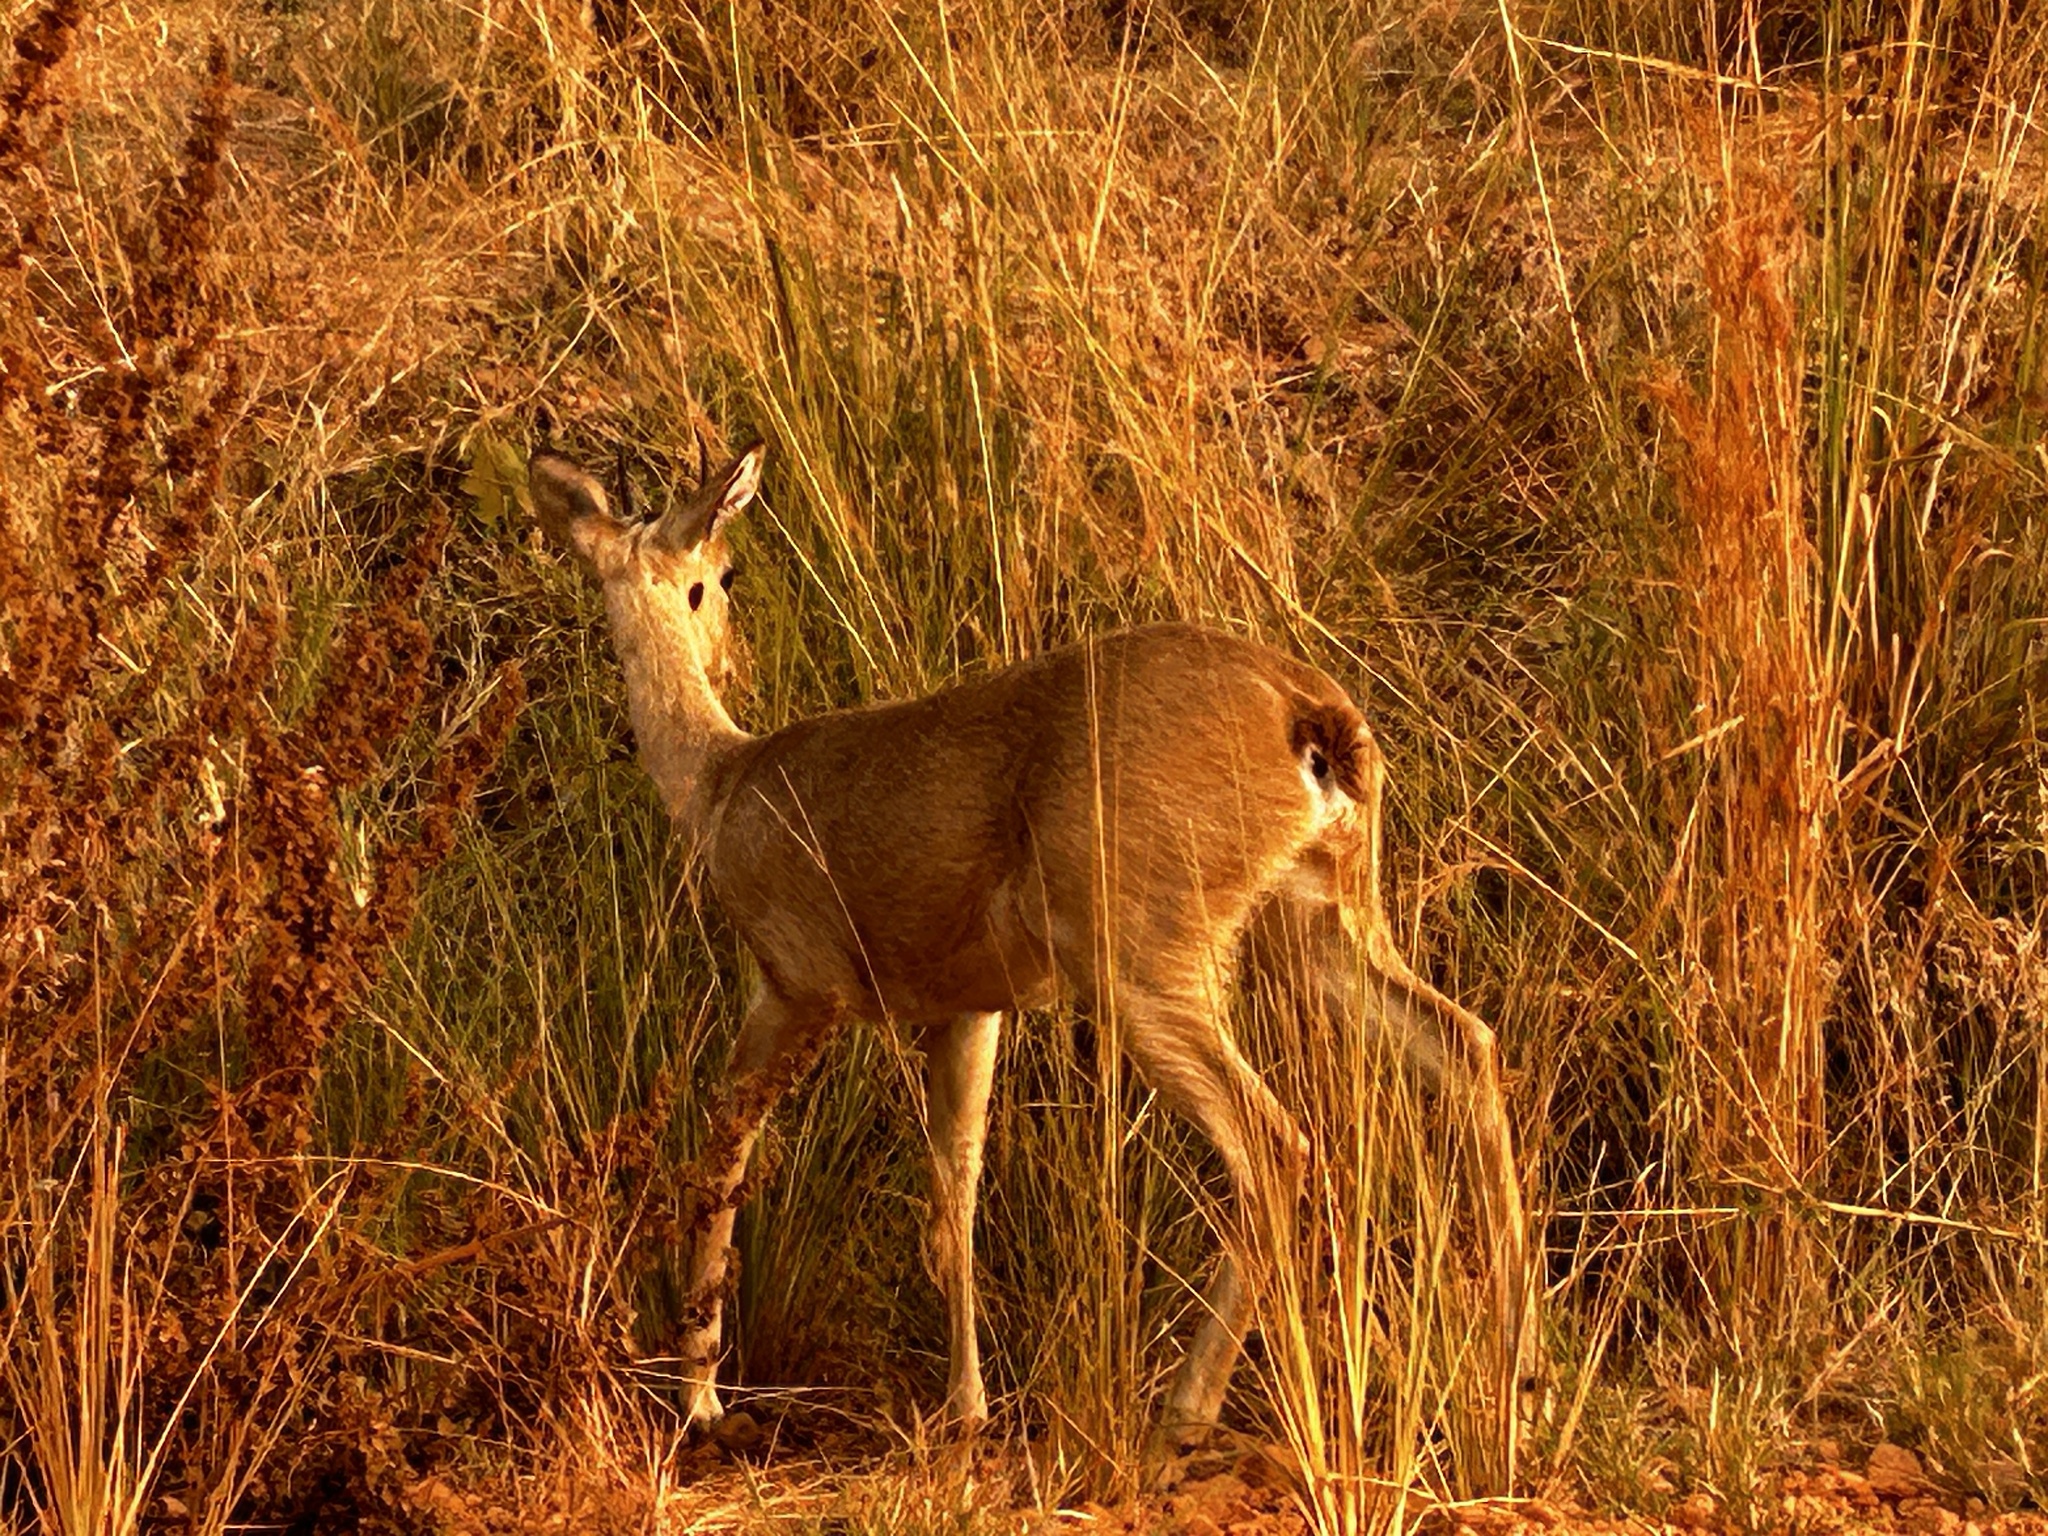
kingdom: Animalia
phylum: Chordata
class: Mammalia
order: Artiodactyla
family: Bovidae
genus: Ourebia
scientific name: Ourebia ourebi
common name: Oribi
